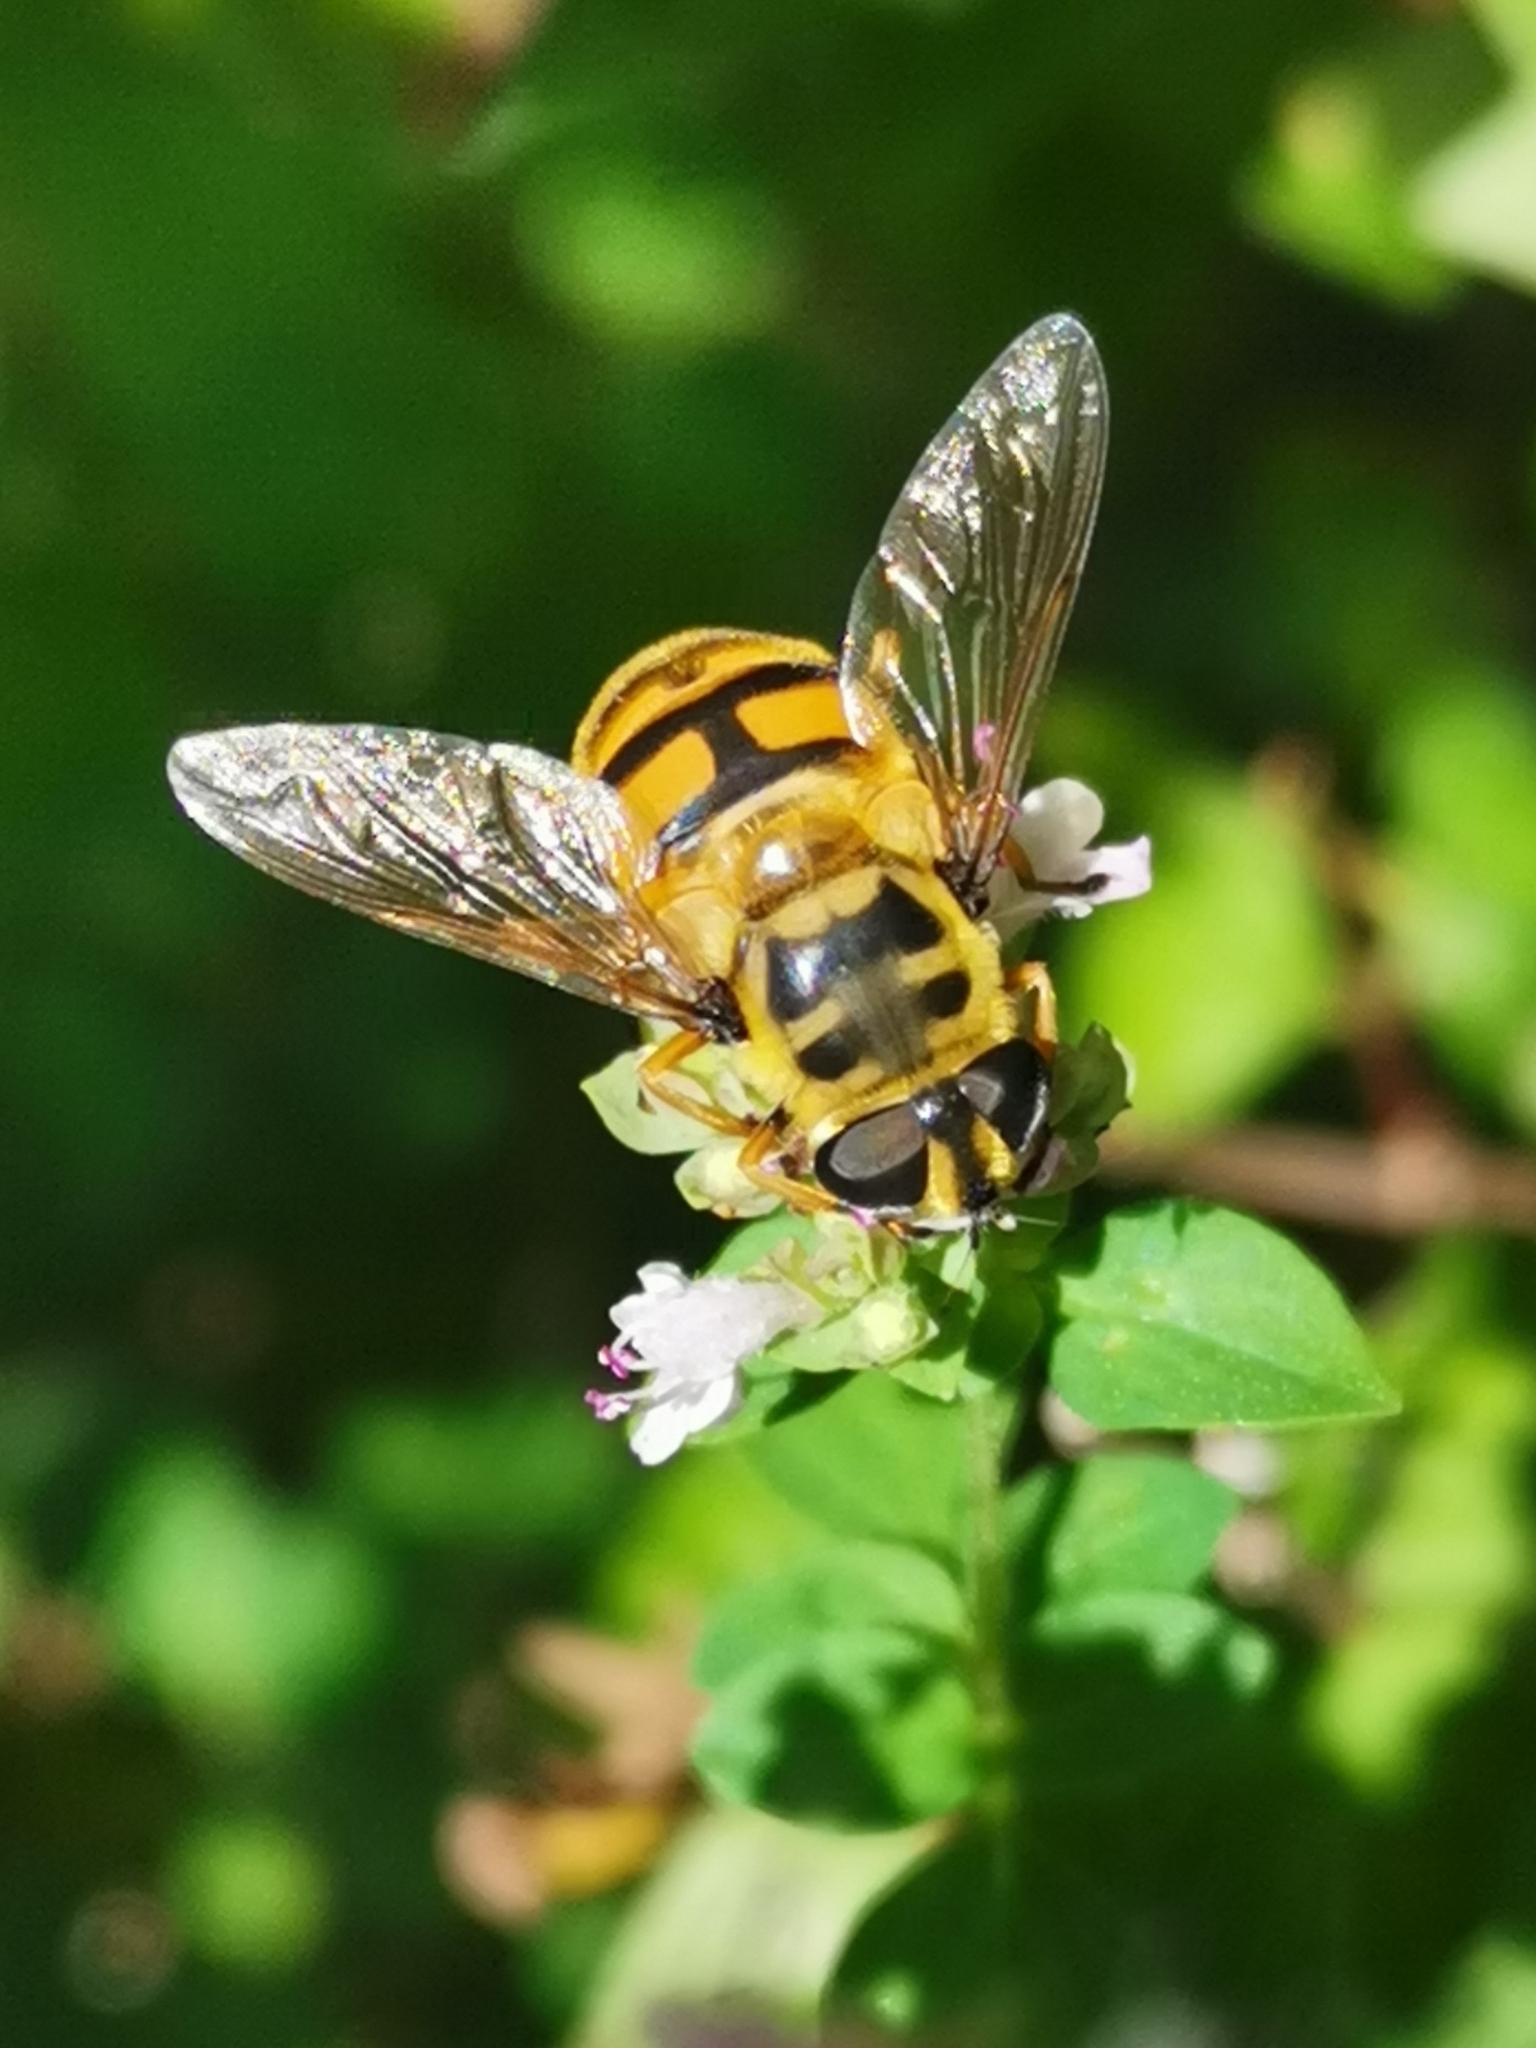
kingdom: Animalia
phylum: Arthropoda
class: Insecta
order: Diptera
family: Syrphidae
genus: Myathropa
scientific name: Myathropa florea
